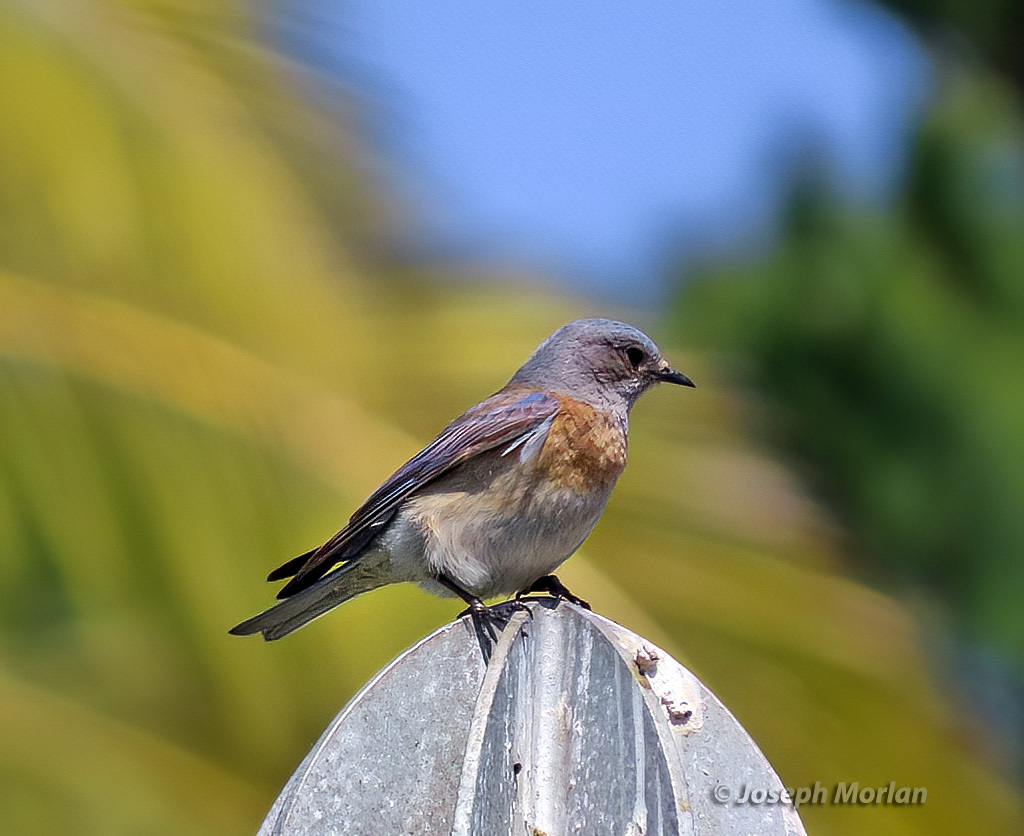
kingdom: Animalia
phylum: Chordata
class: Aves
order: Passeriformes
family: Turdidae
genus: Sialia
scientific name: Sialia mexicana
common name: Western bluebird
